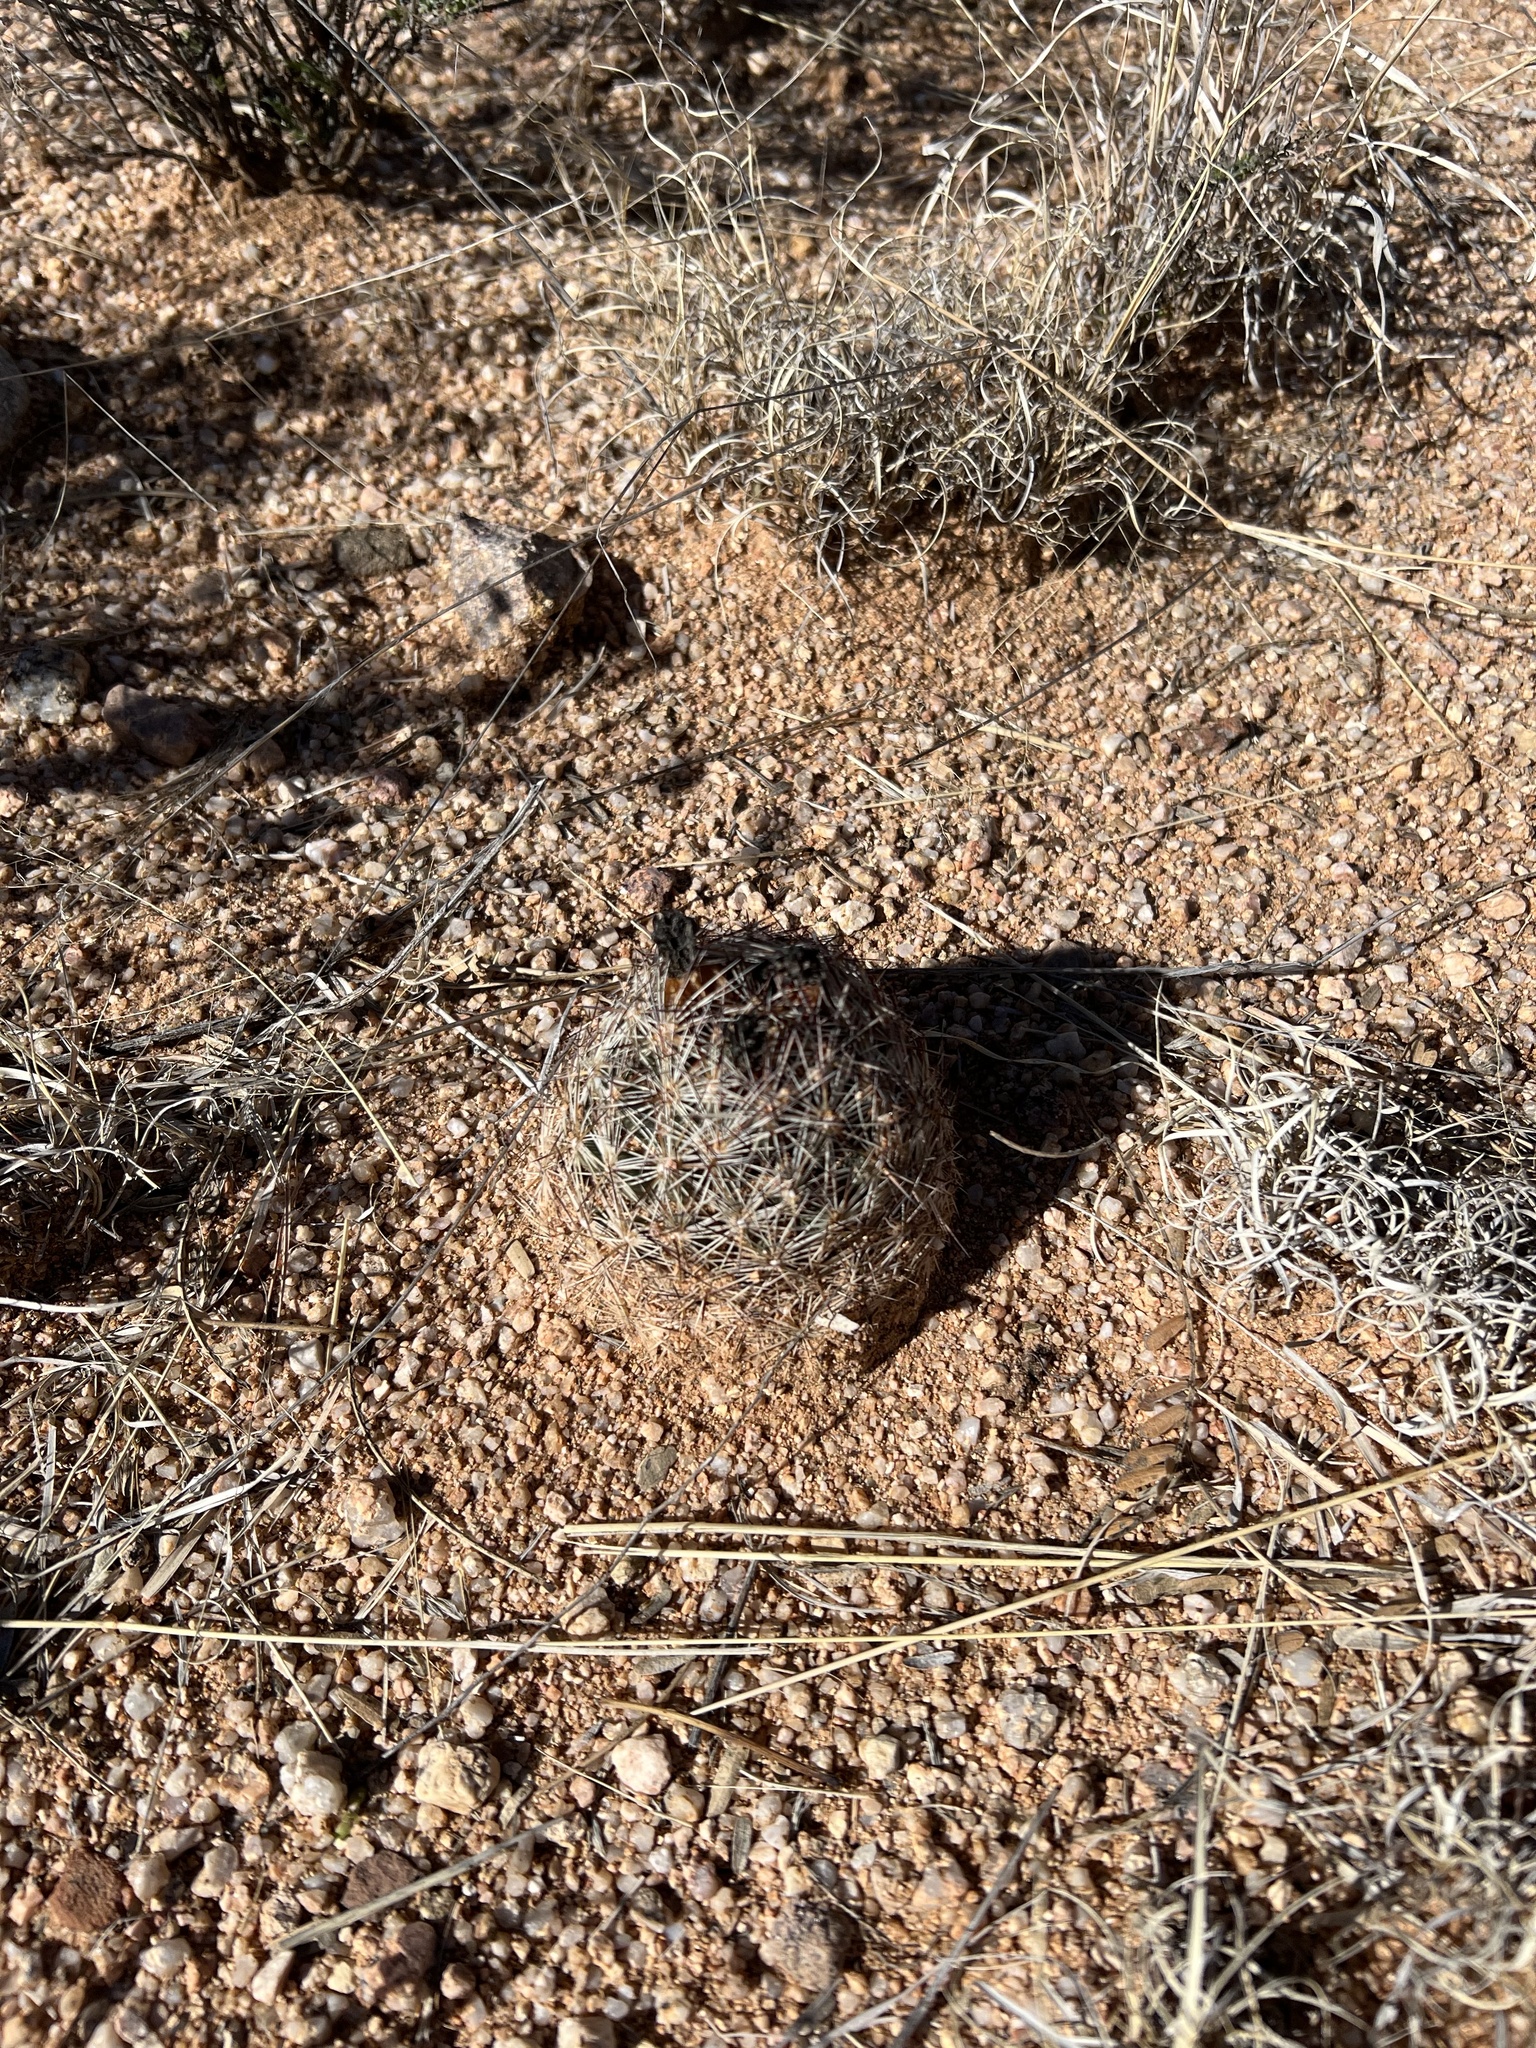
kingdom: Plantae
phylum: Tracheophyta
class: Magnoliopsida
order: Caryophyllales
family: Cactaceae
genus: Pelecyphora
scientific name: Pelecyphora vivipara
